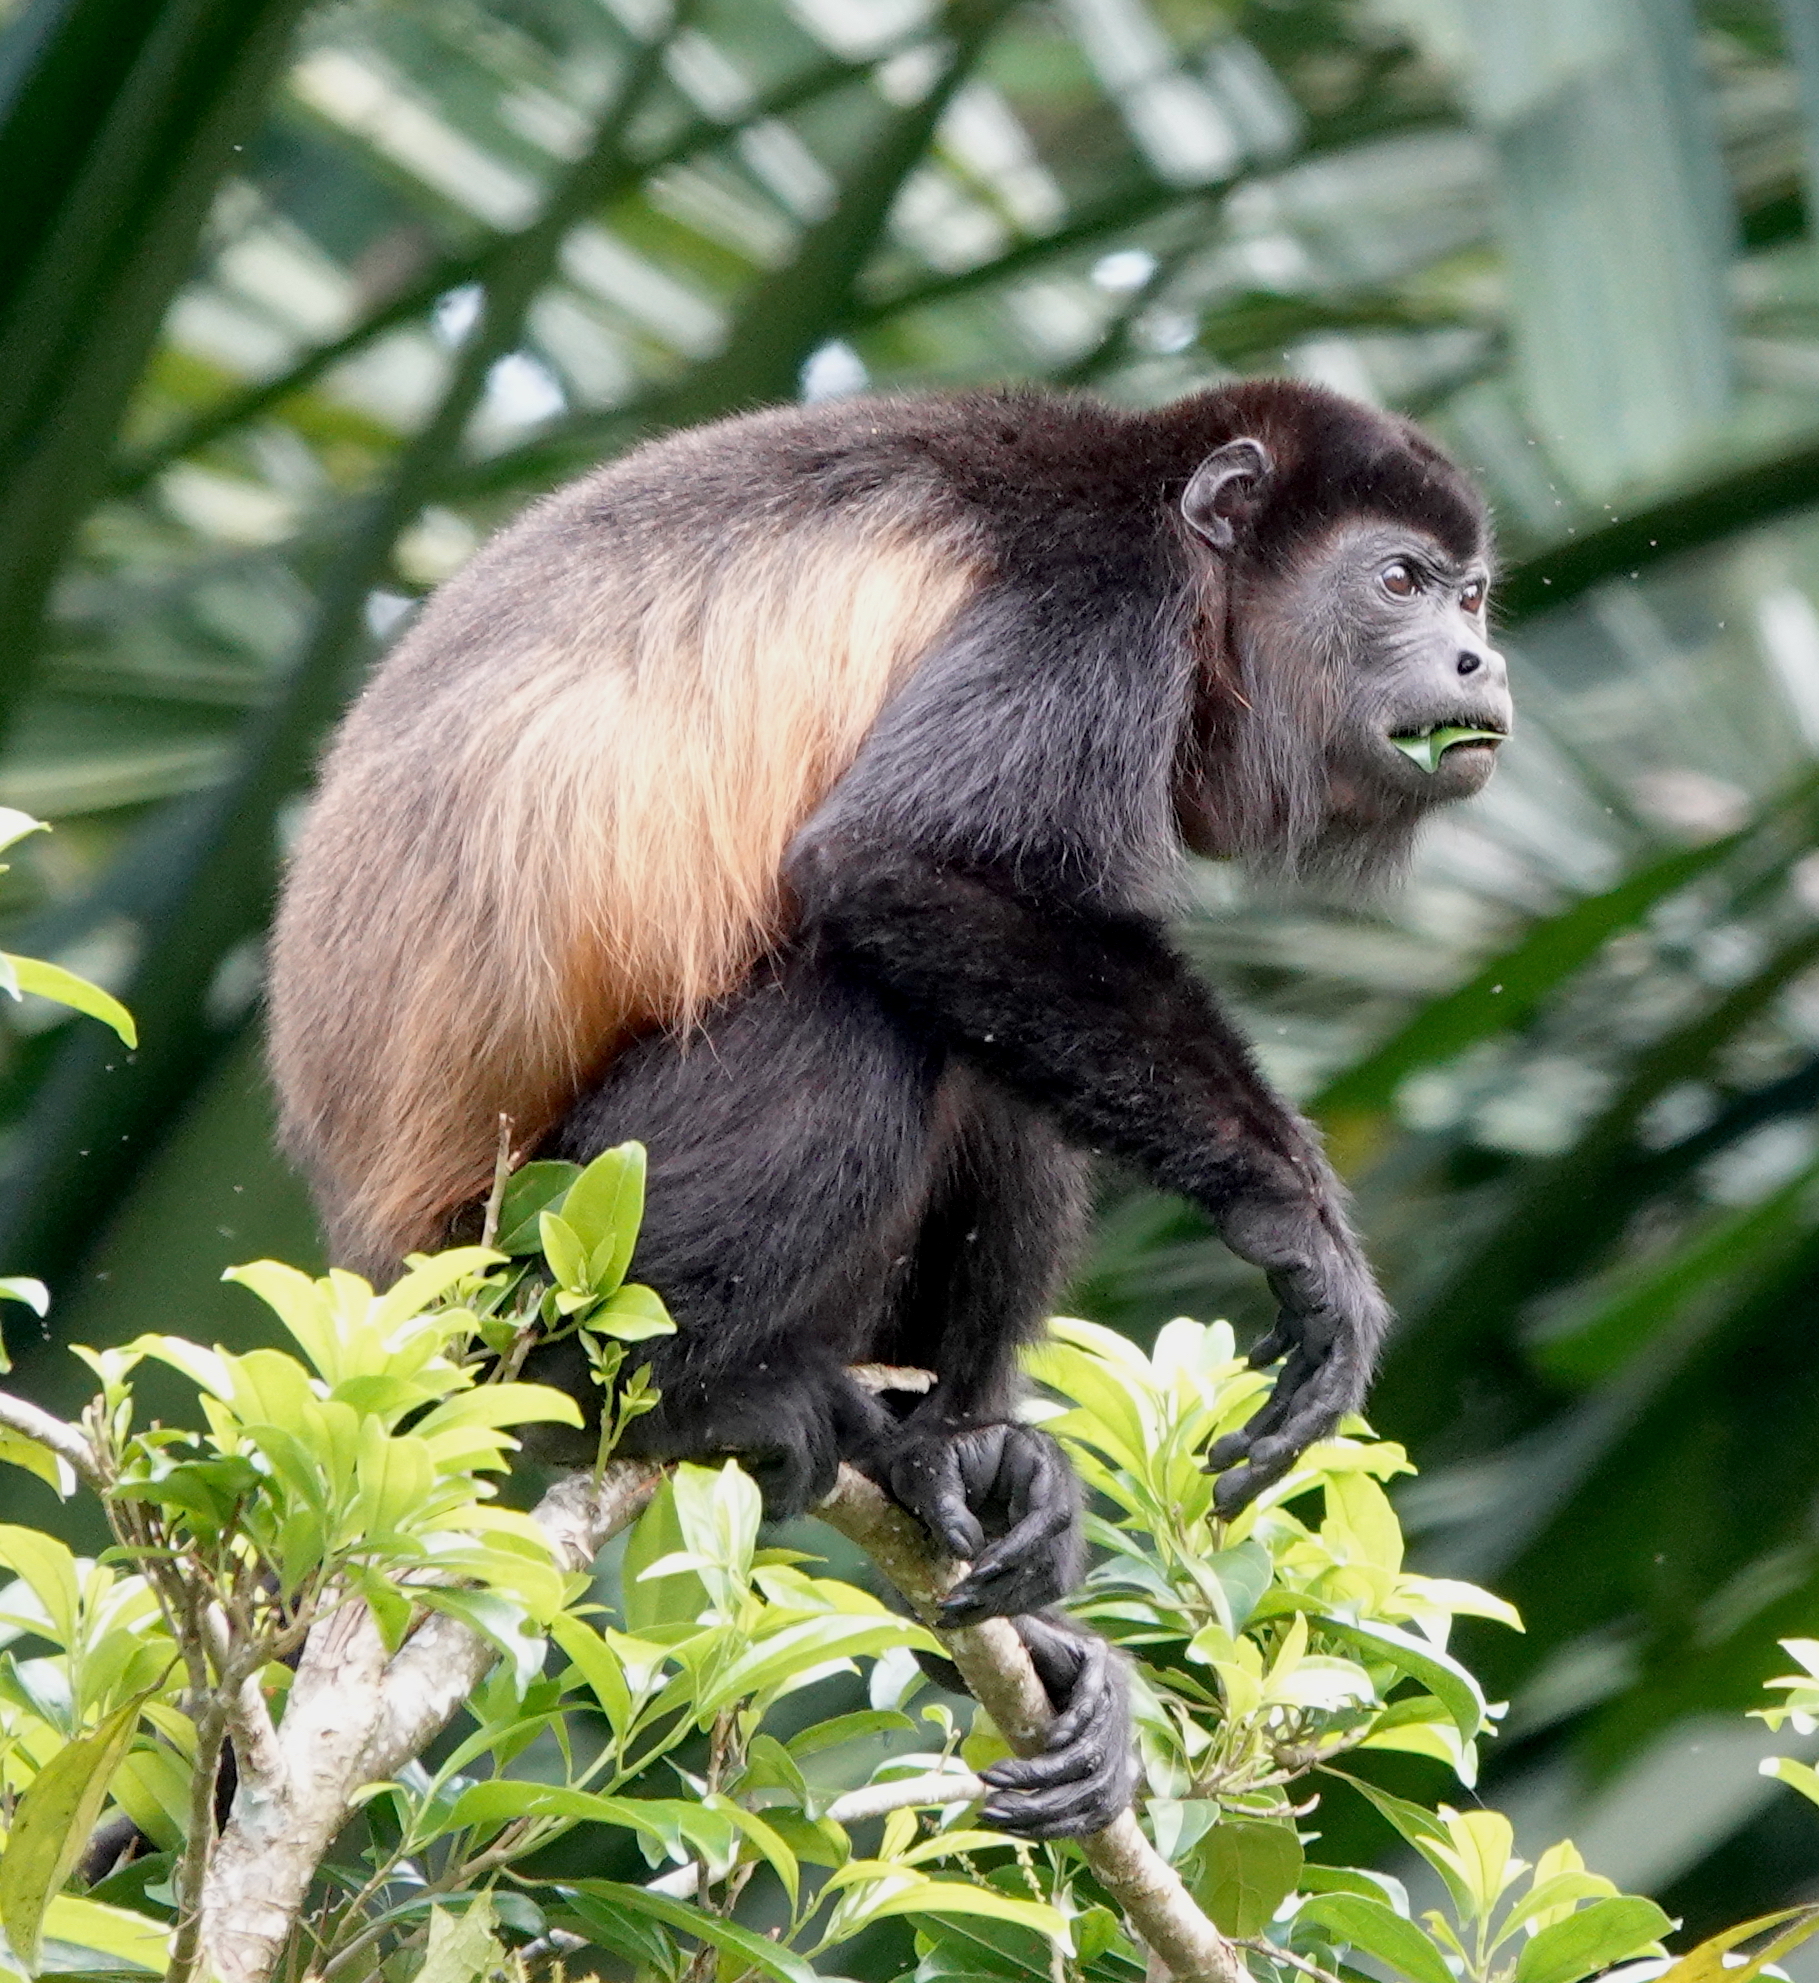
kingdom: Animalia
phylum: Chordata
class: Mammalia
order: Primates
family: Atelidae
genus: Alouatta
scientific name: Alouatta palliata
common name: Mantled howler
